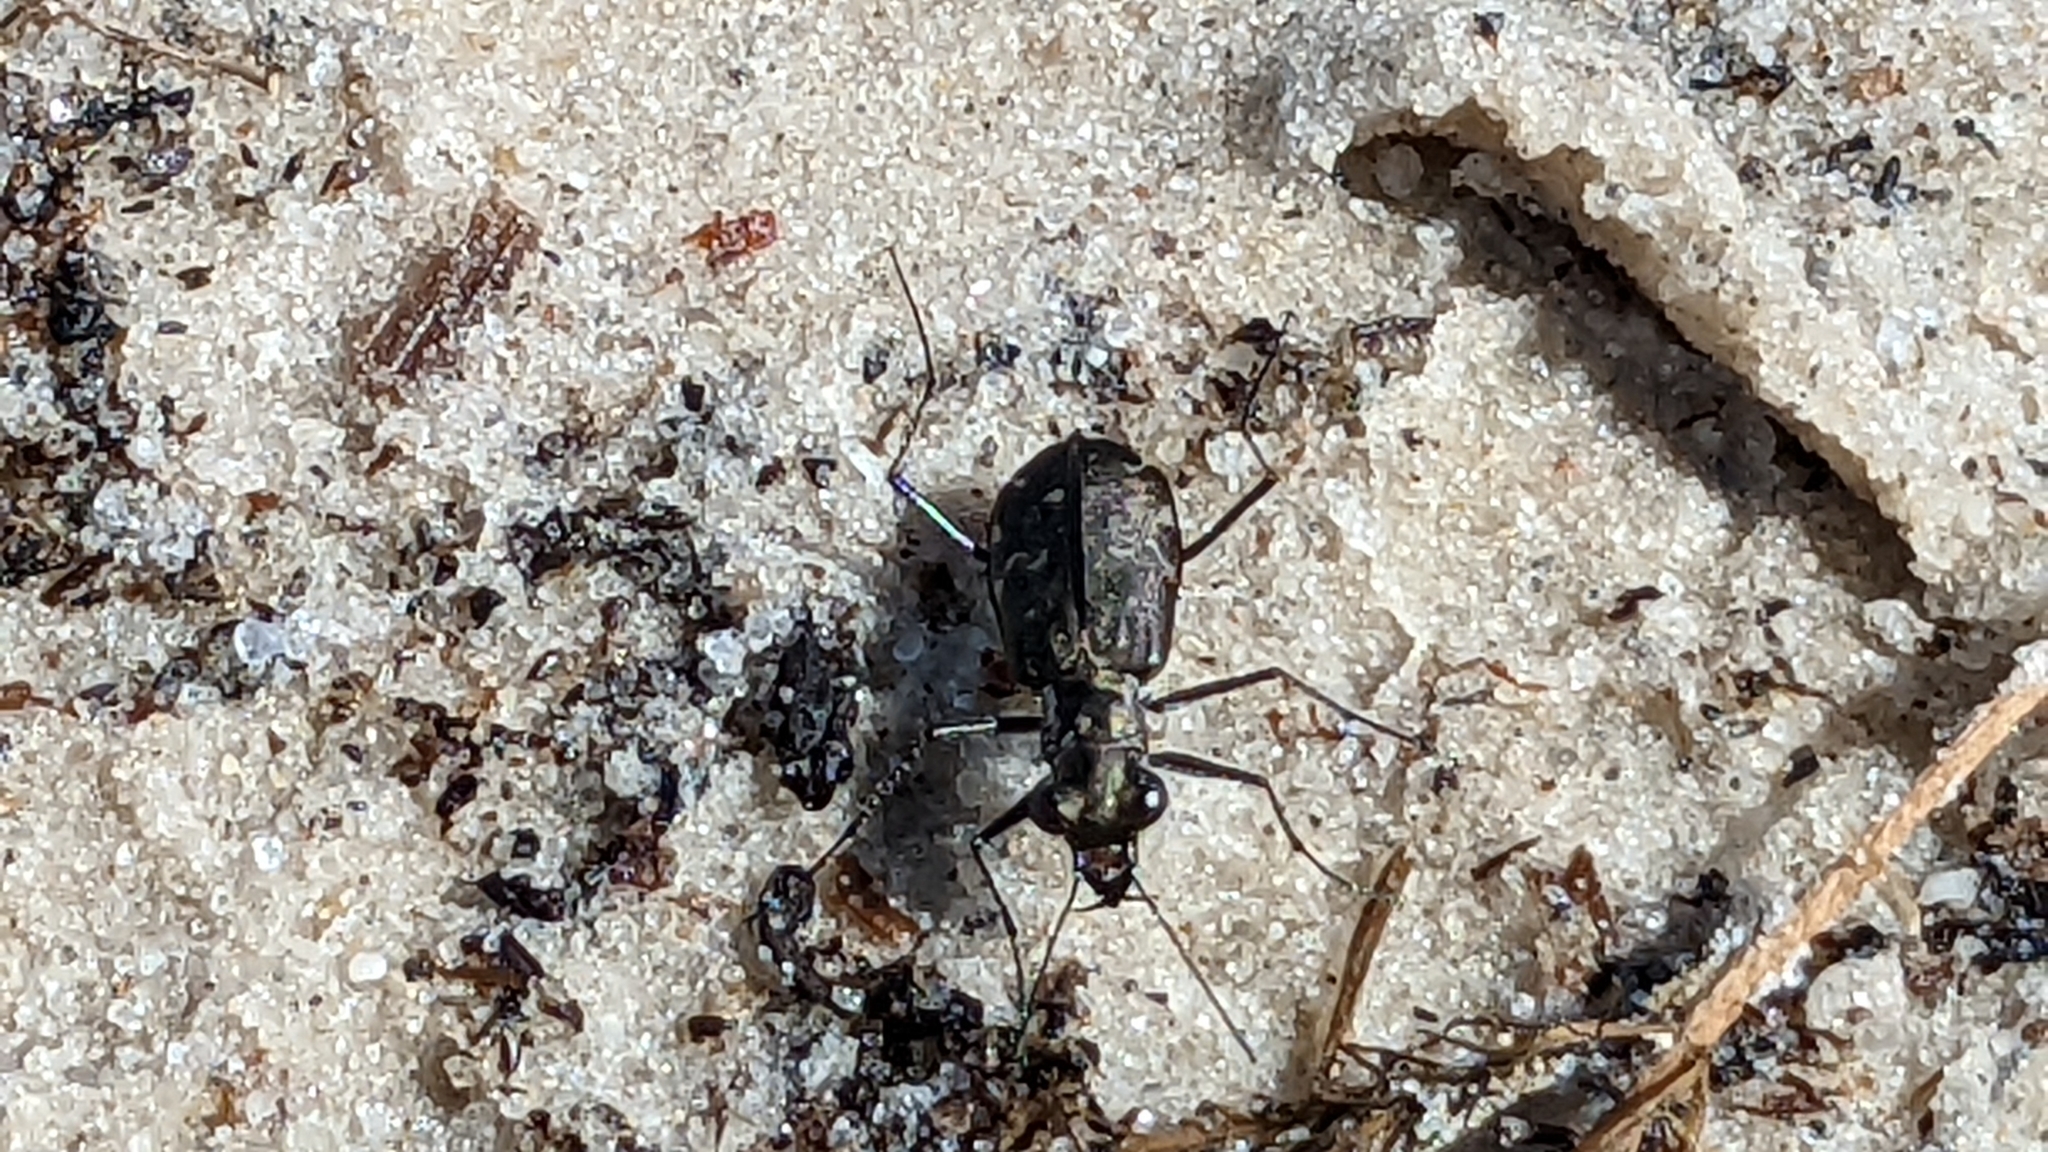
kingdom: Animalia
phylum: Arthropoda
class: Insecta
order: Coleoptera
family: Carabidae
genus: Cicindela
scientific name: Cicindela trifasciata
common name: Mudflat tiger beetle
